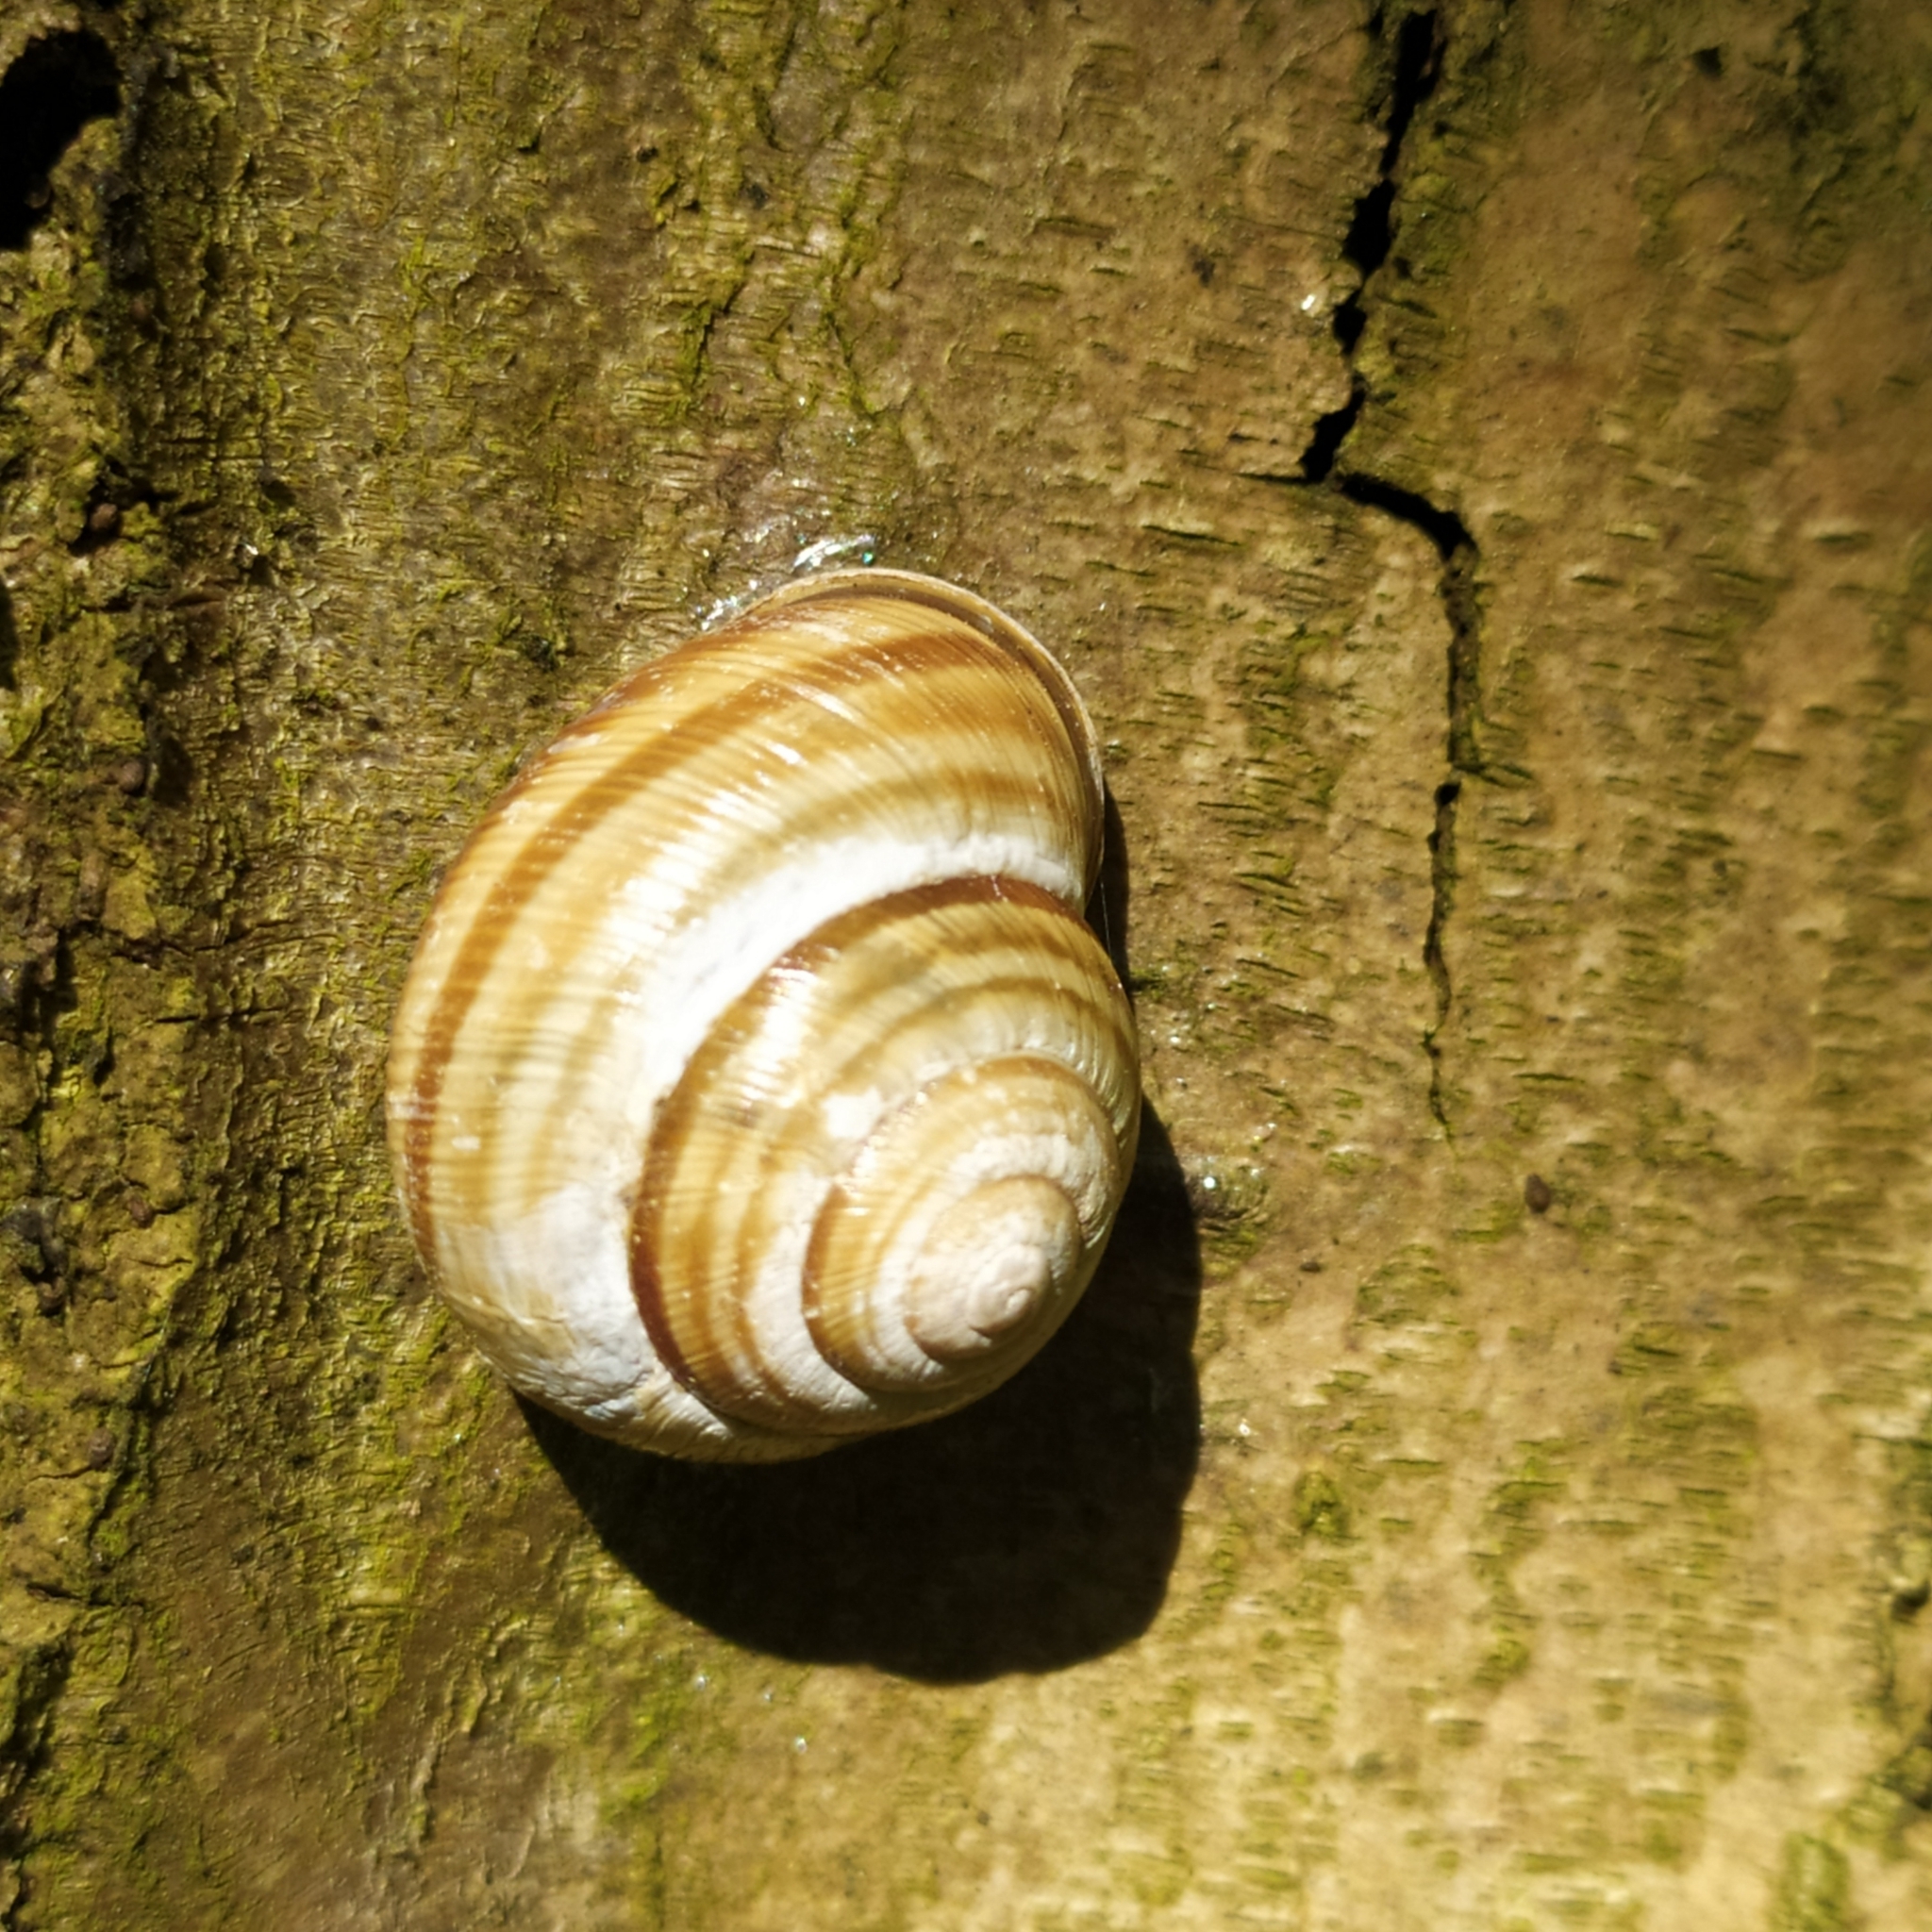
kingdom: Animalia
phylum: Mollusca
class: Gastropoda
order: Stylommatophora
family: Helicidae
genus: Caucasotachea
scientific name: Caucasotachea vindobonensis
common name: European helicid land snail
